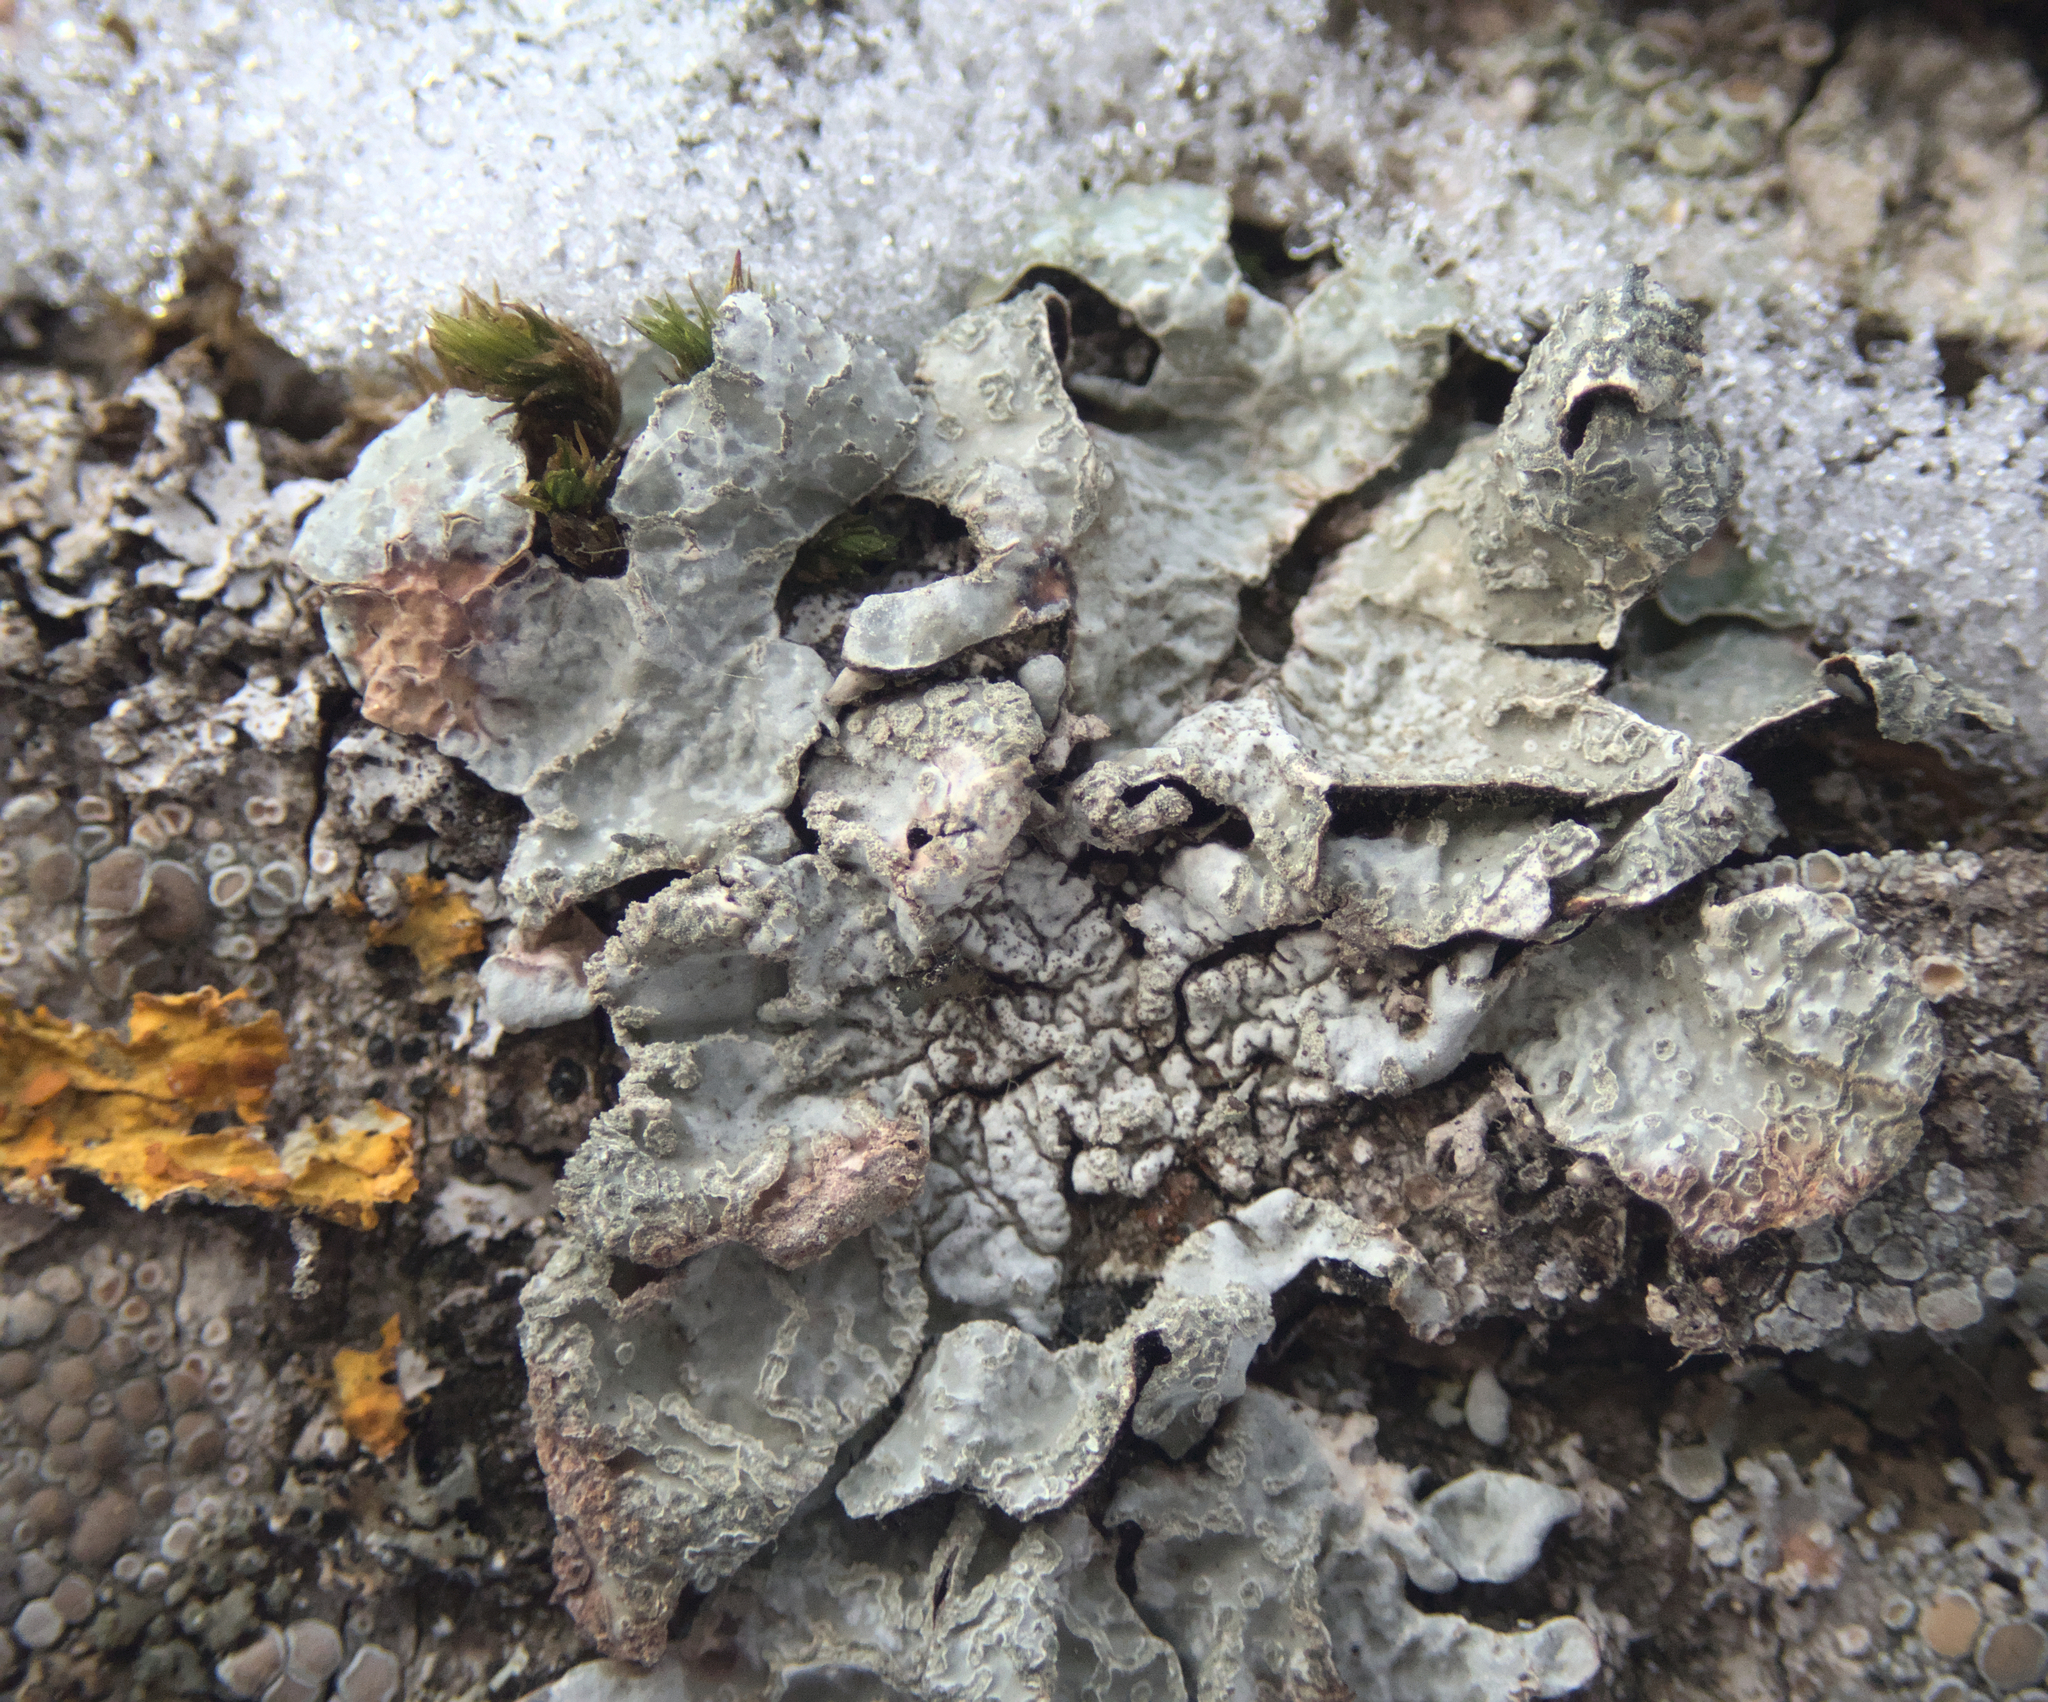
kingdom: Fungi
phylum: Ascomycota
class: Lecanoromycetes
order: Lecanorales
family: Parmeliaceae
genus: Parmelia
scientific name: Parmelia sulcata
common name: Netted shield lichen
